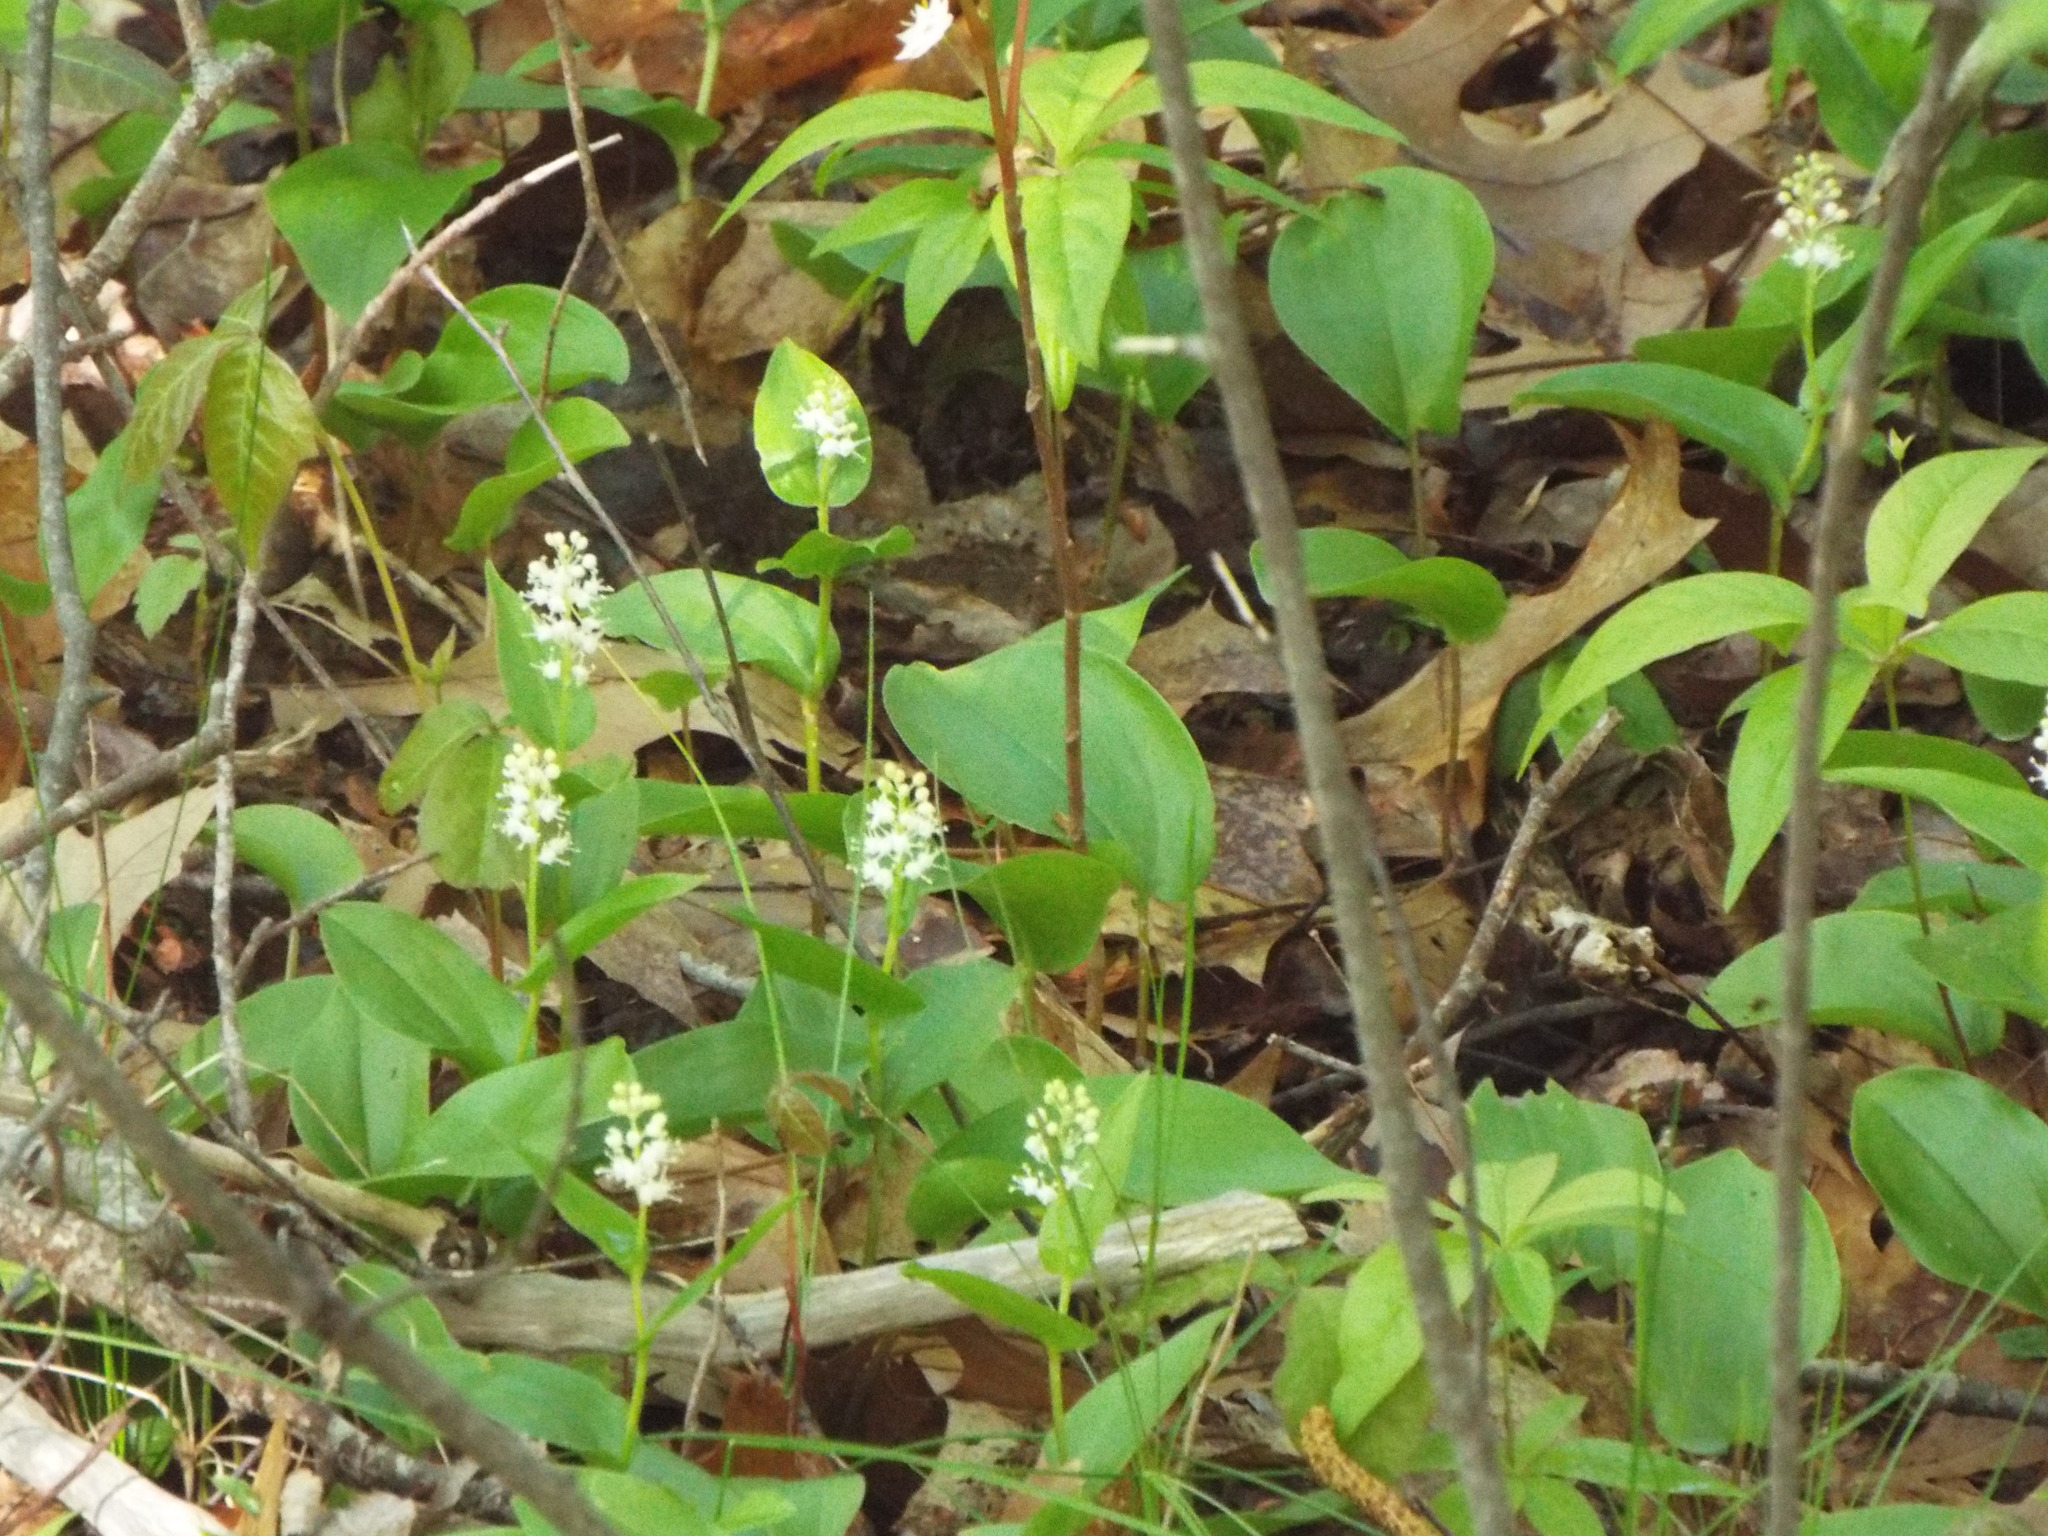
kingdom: Plantae
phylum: Tracheophyta
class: Liliopsida
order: Asparagales
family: Asparagaceae
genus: Maianthemum
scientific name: Maianthemum canadense
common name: False lily-of-the-valley
